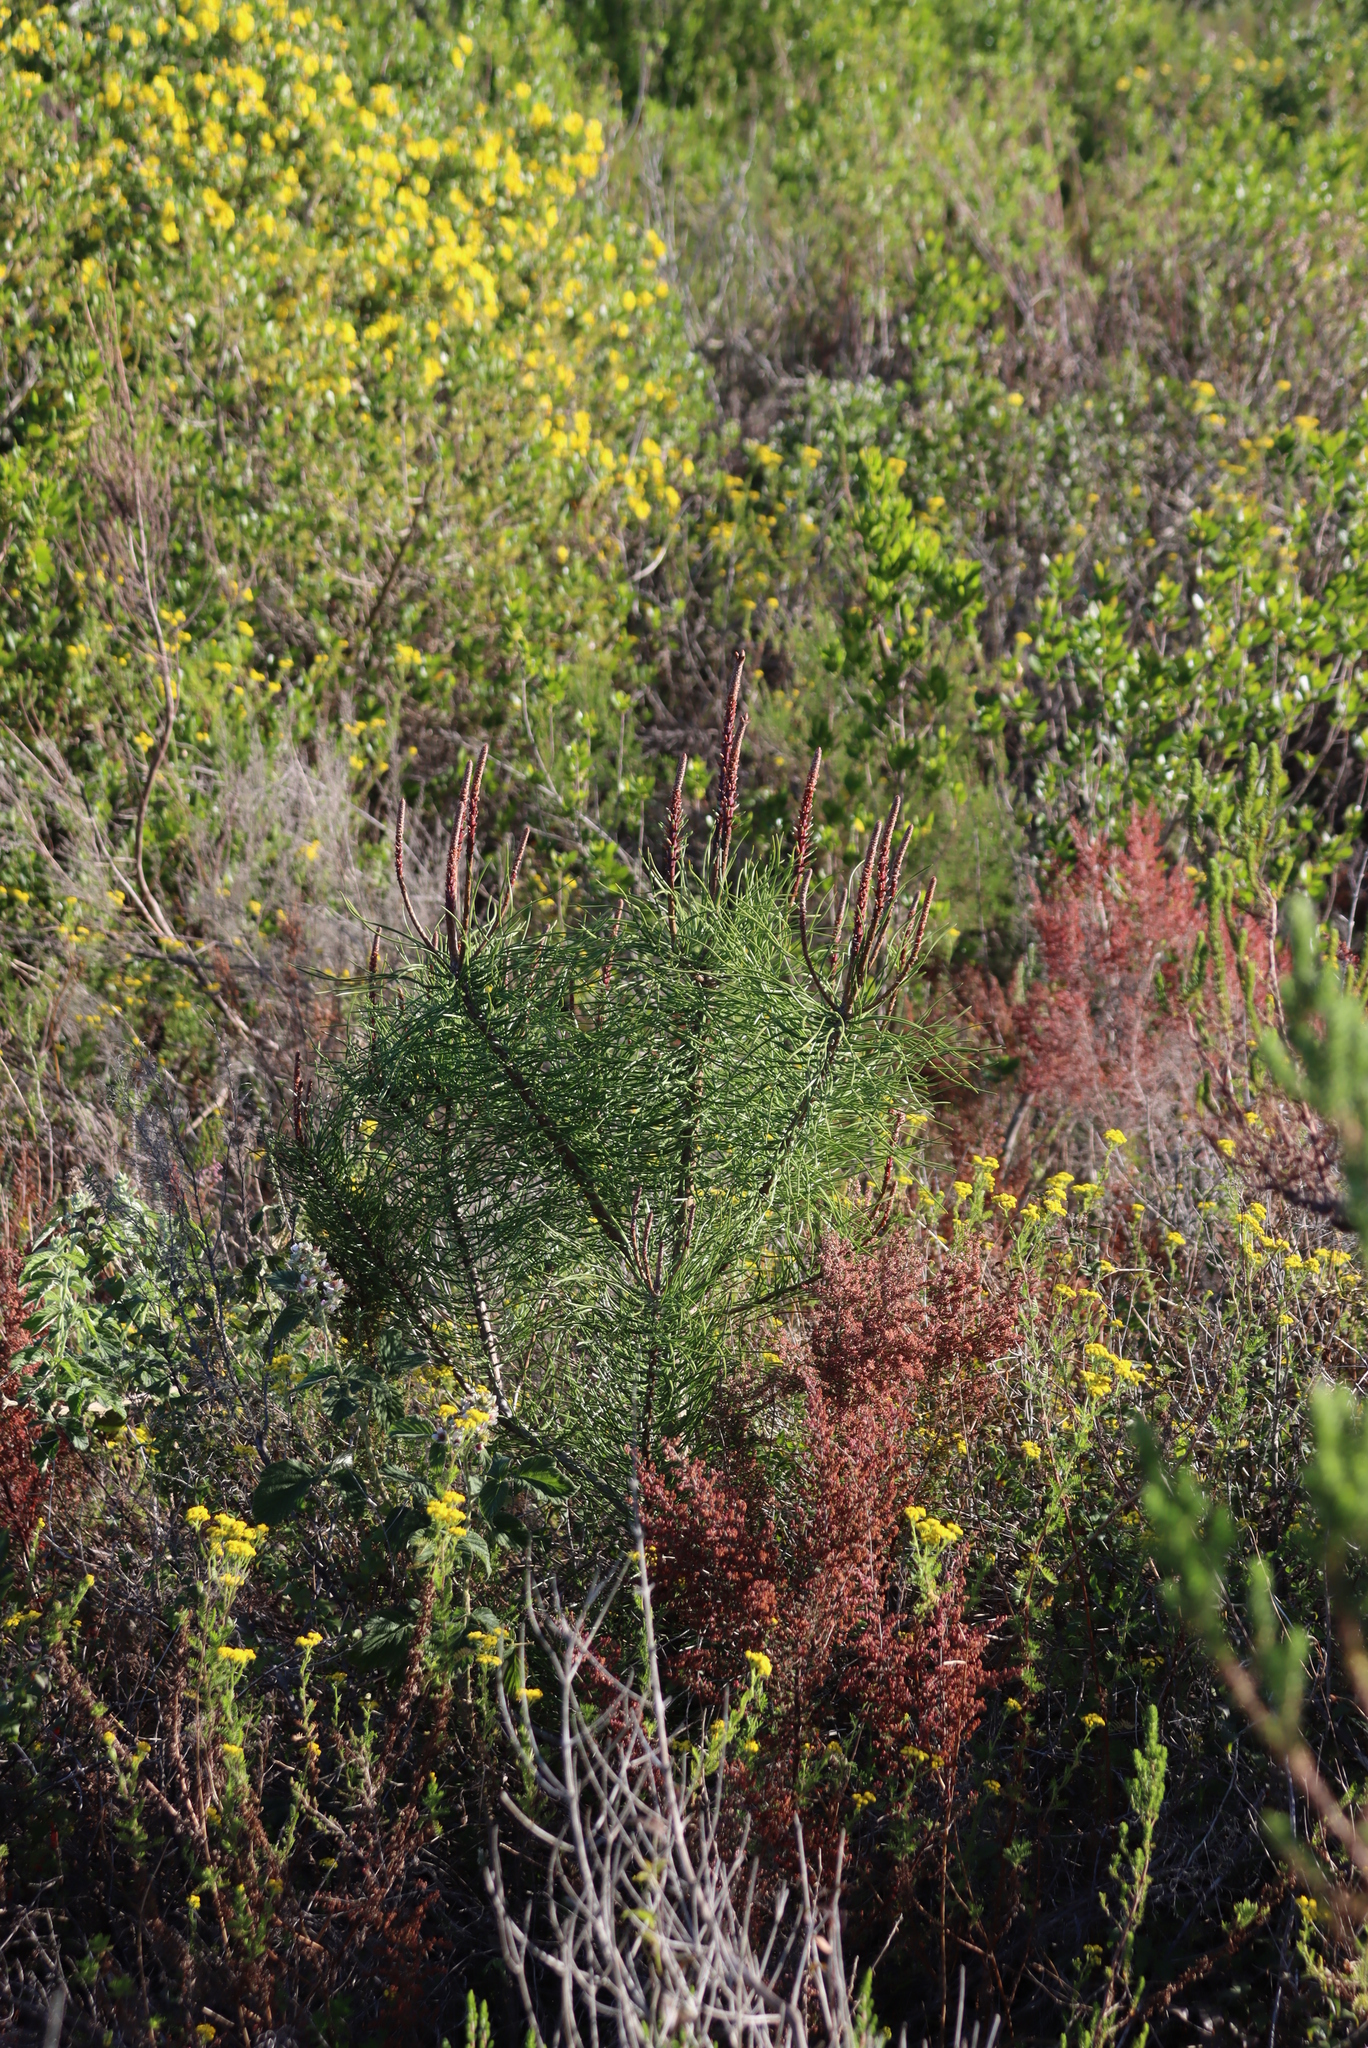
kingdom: Plantae
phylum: Tracheophyta
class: Pinopsida
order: Pinales
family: Pinaceae
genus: Pinus
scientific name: Pinus pinaster
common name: Maritime pine
